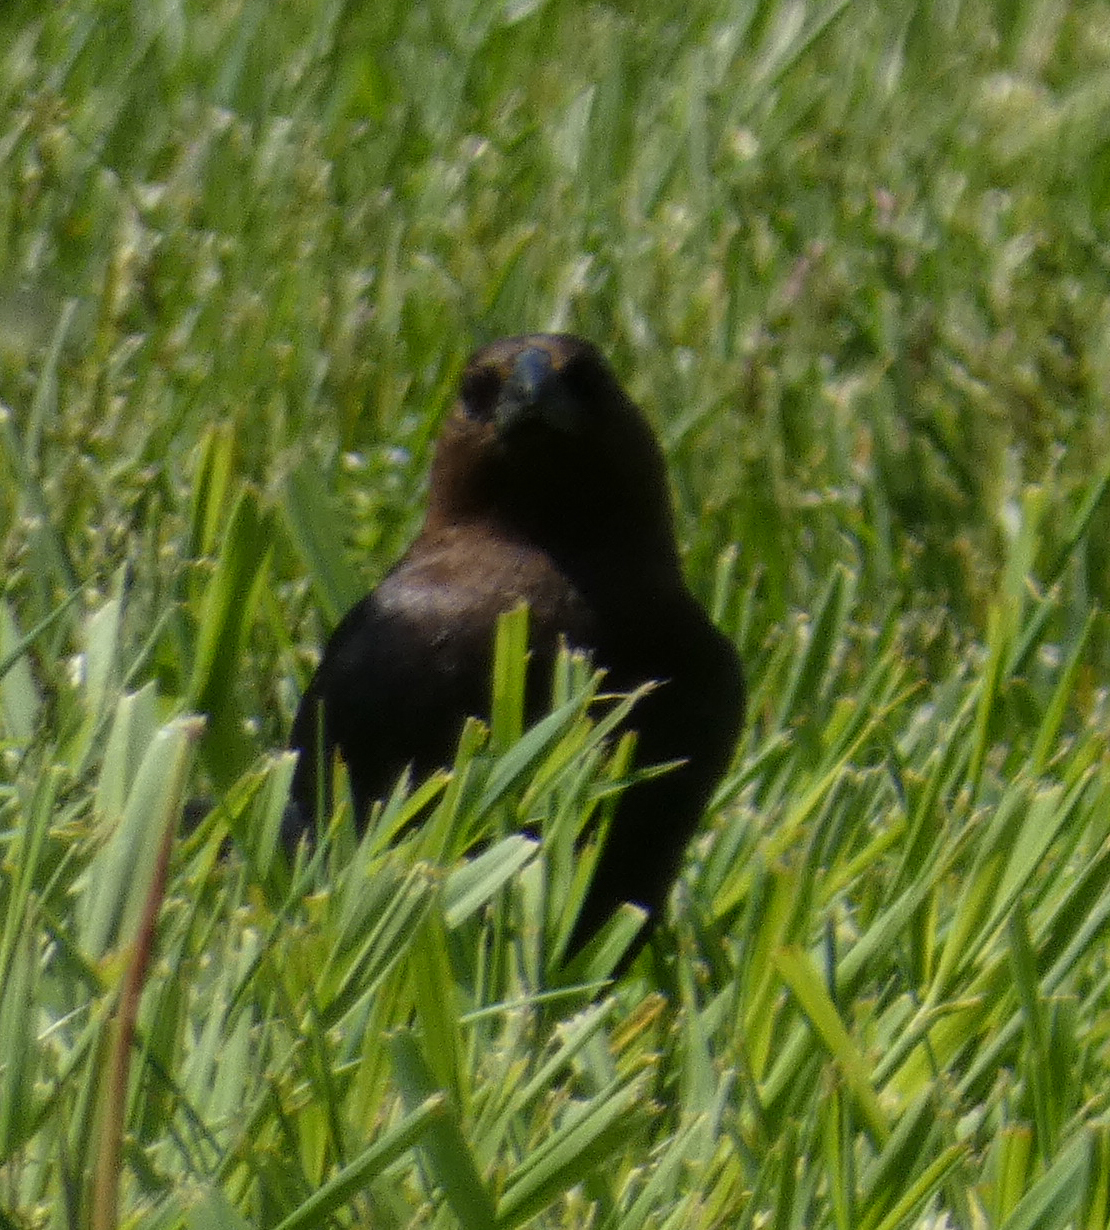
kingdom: Animalia
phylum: Chordata
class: Aves
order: Passeriformes
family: Icteridae
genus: Molothrus
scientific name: Molothrus ater
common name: Brown-headed cowbird
